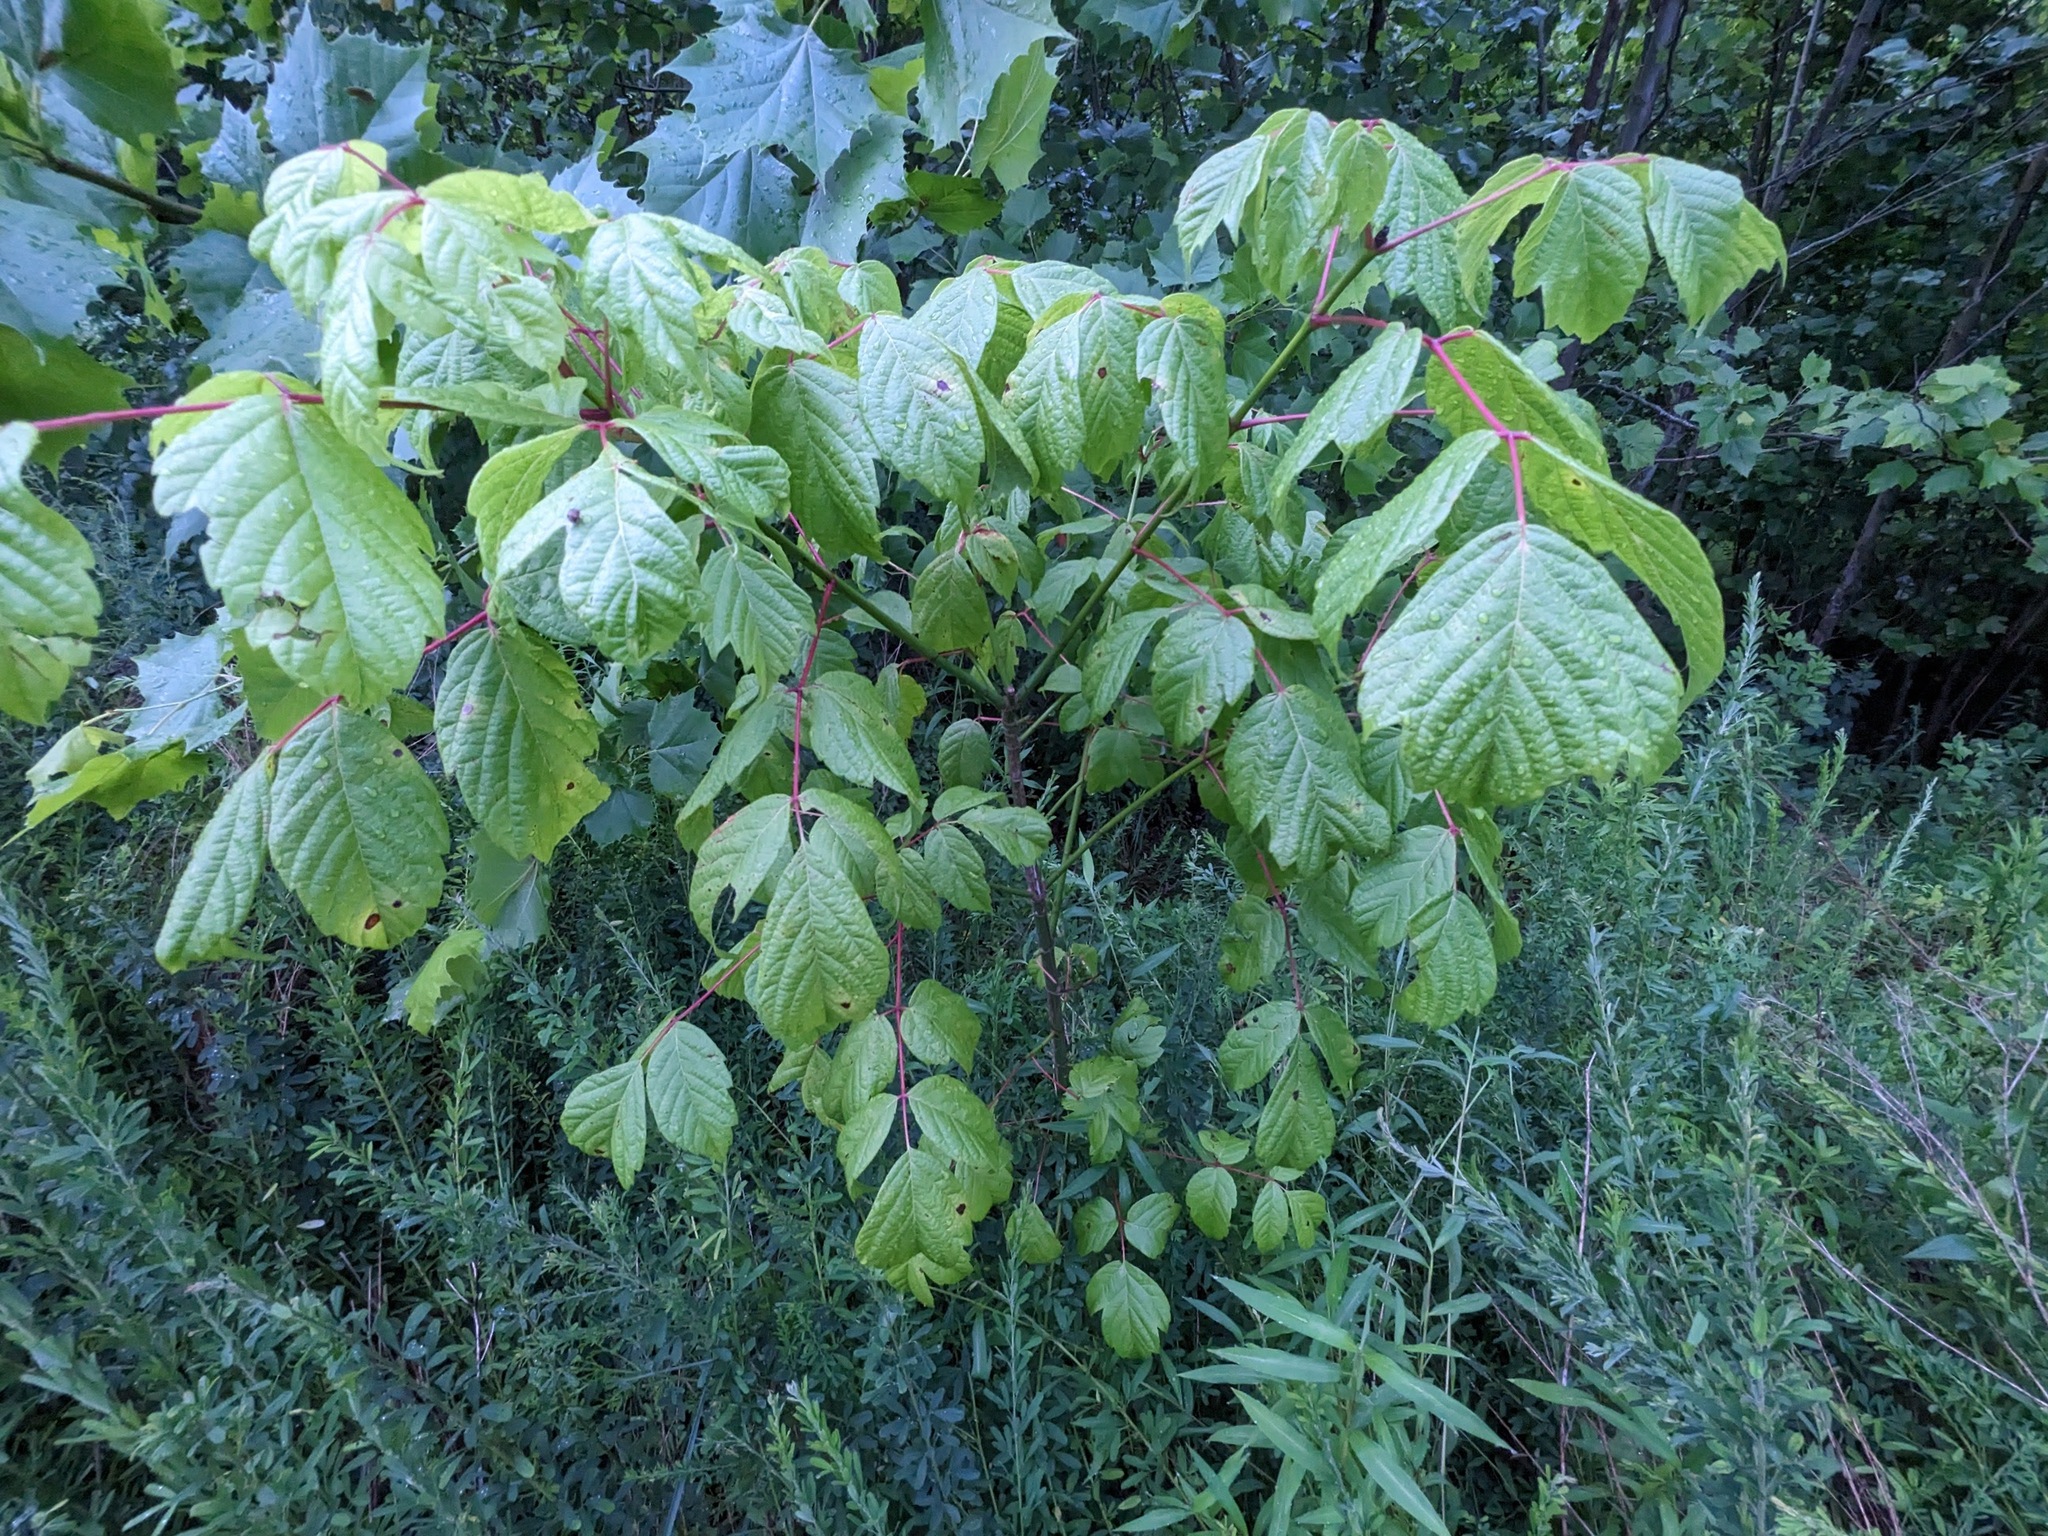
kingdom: Plantae
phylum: Tracheophyta
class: Magnoliopsida
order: Sapindales
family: Sapindaceae
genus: Acer
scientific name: Acer negundo
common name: Ashleaf maple
